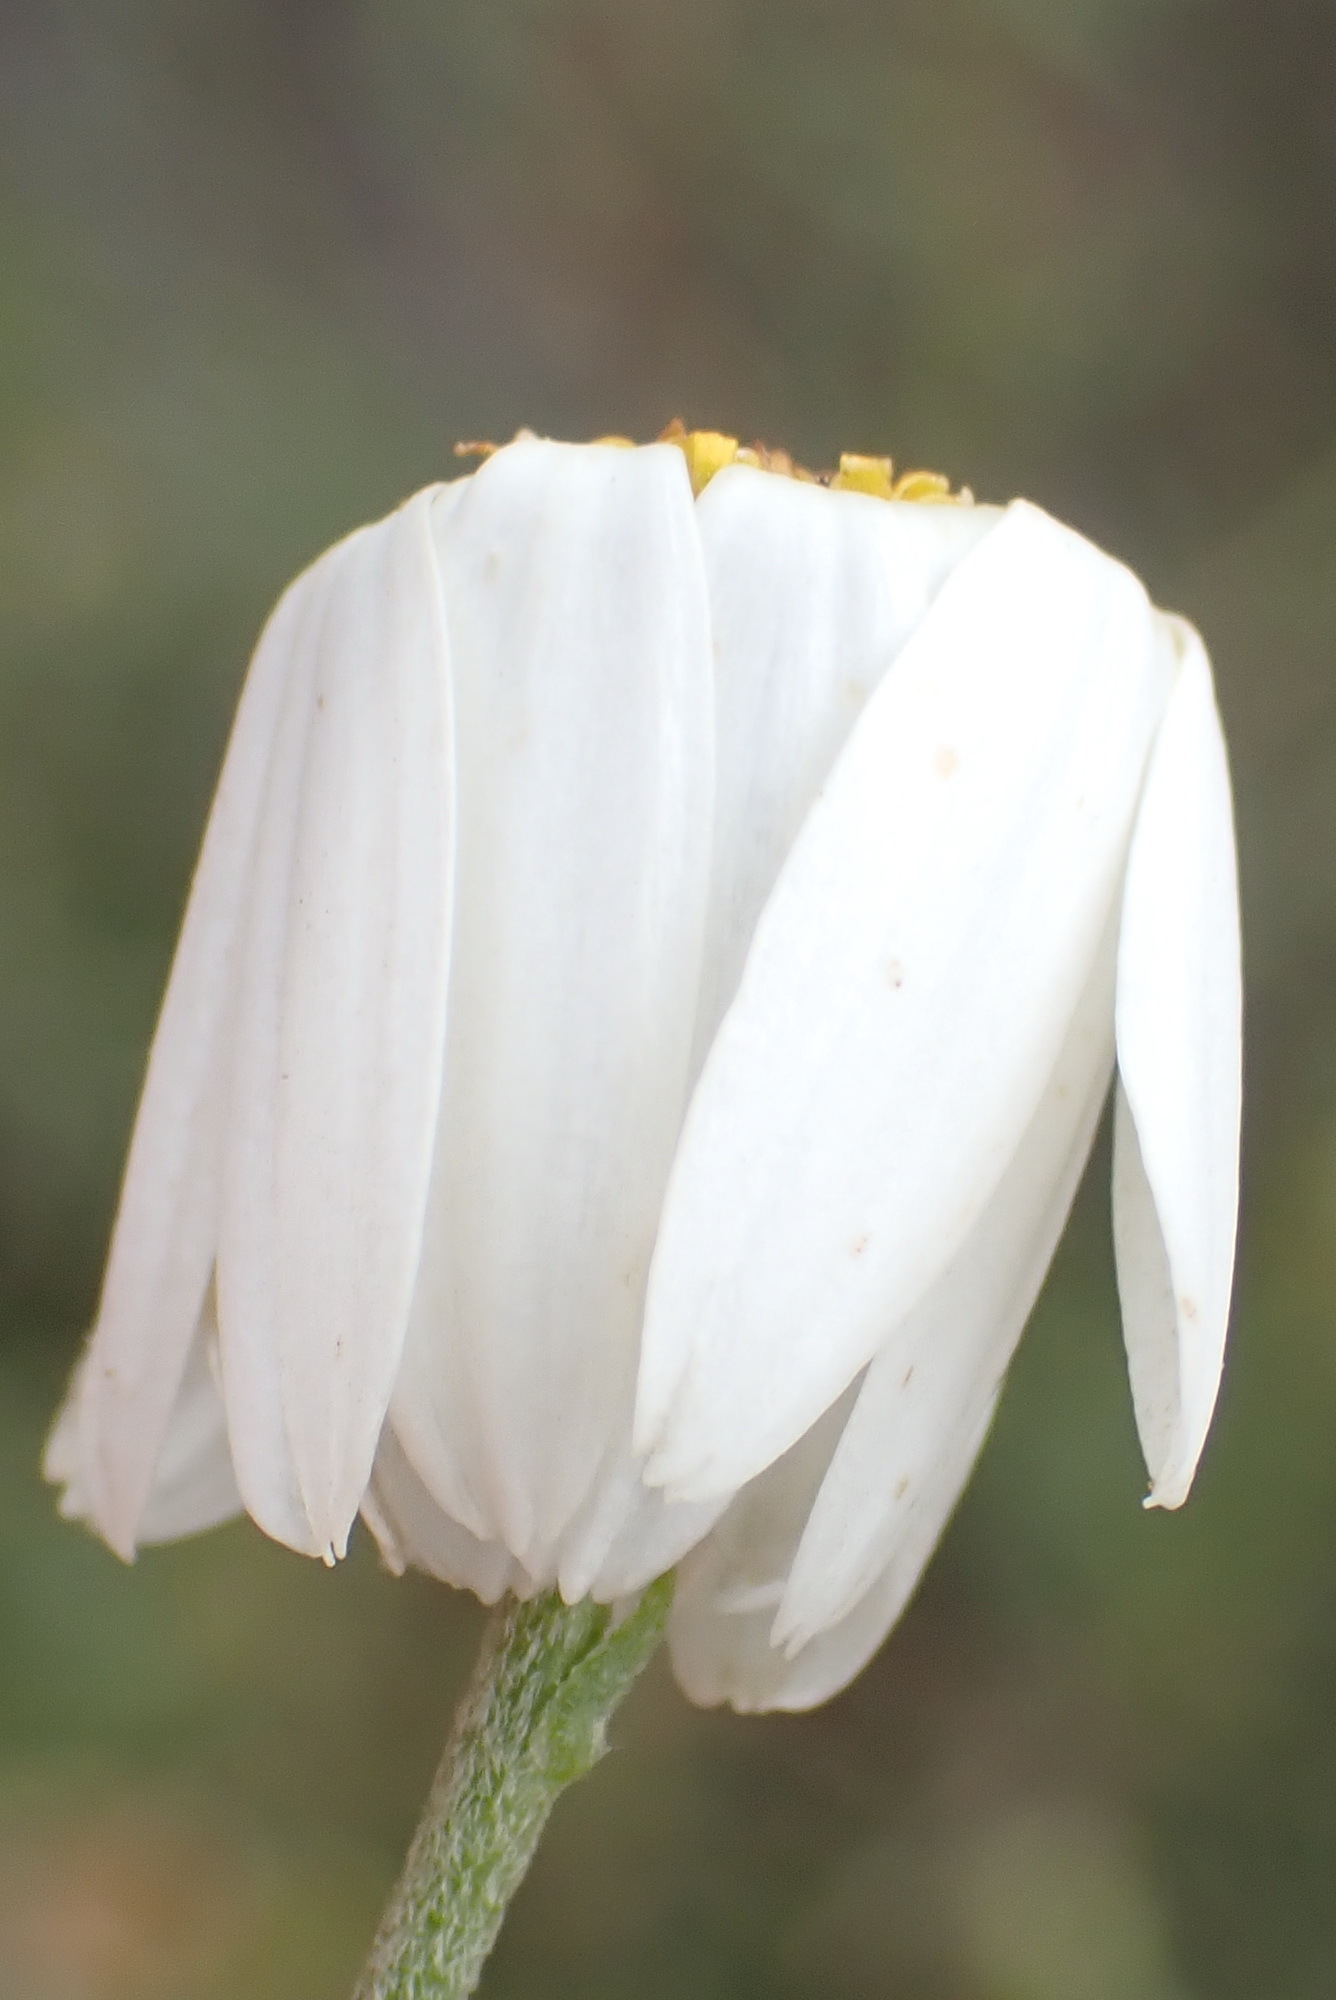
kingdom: Plantae
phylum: Tracheophyta
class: Magnoliopsida
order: Asterales
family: Asteraceae
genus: Phymaspermum
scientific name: Phymaspermum leptophyllum
